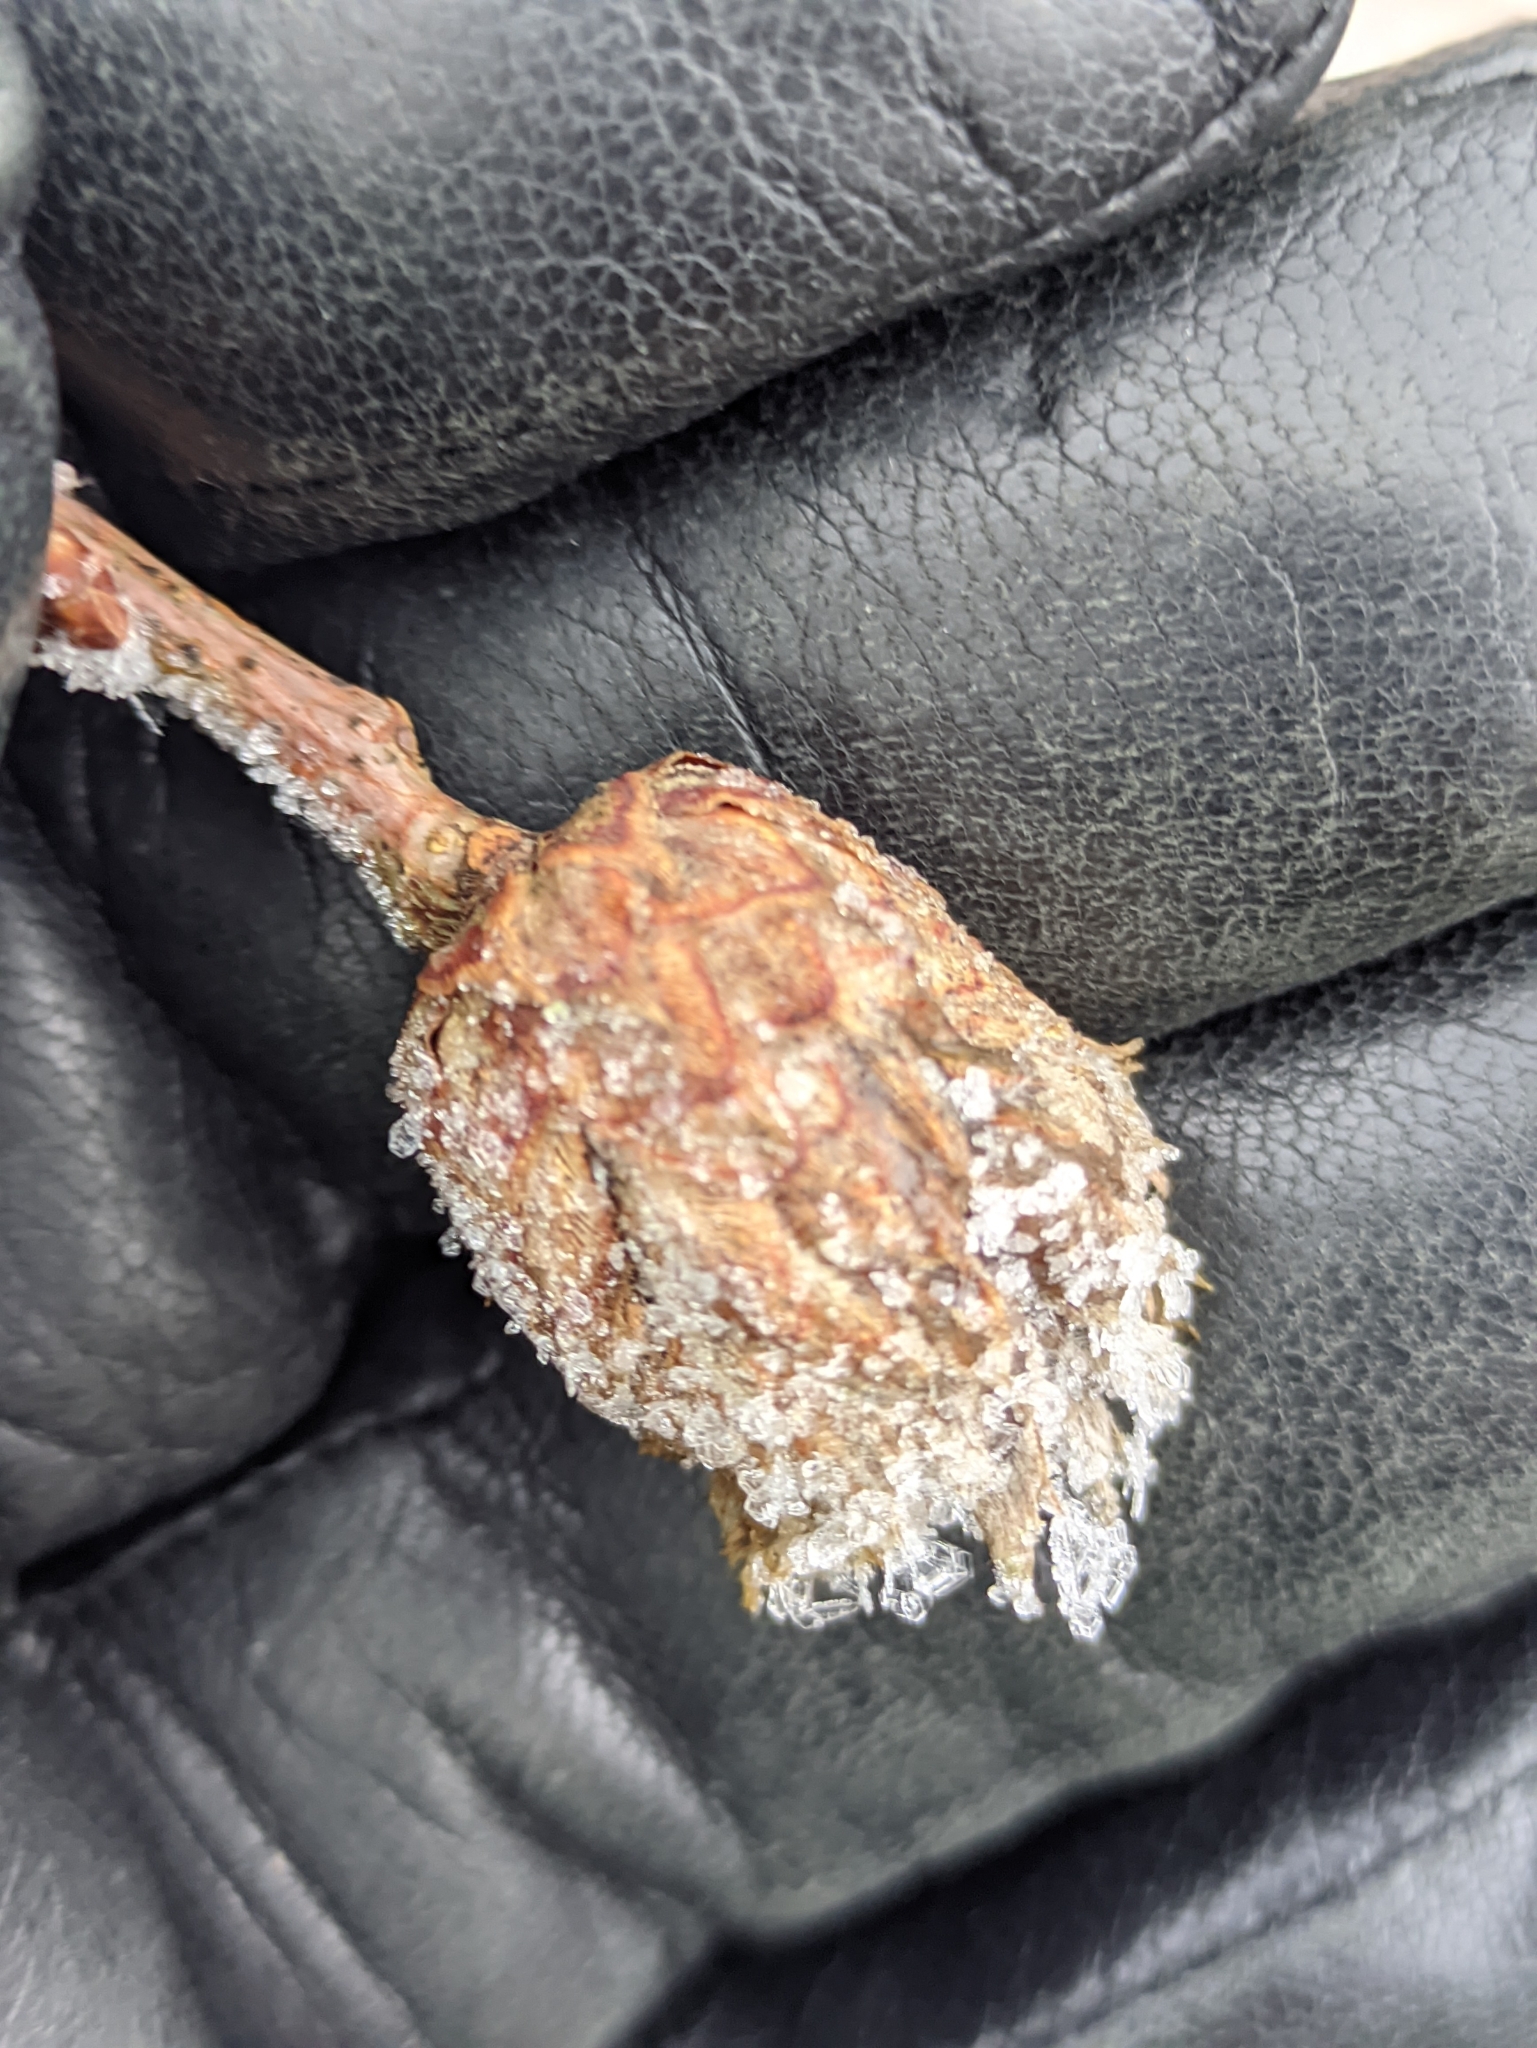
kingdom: Animalia
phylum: Arthropoda
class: Insecta
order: Hymenoptera
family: Cynipidae
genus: Andricus
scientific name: Andricus foecundatrix
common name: Artichoke gall
